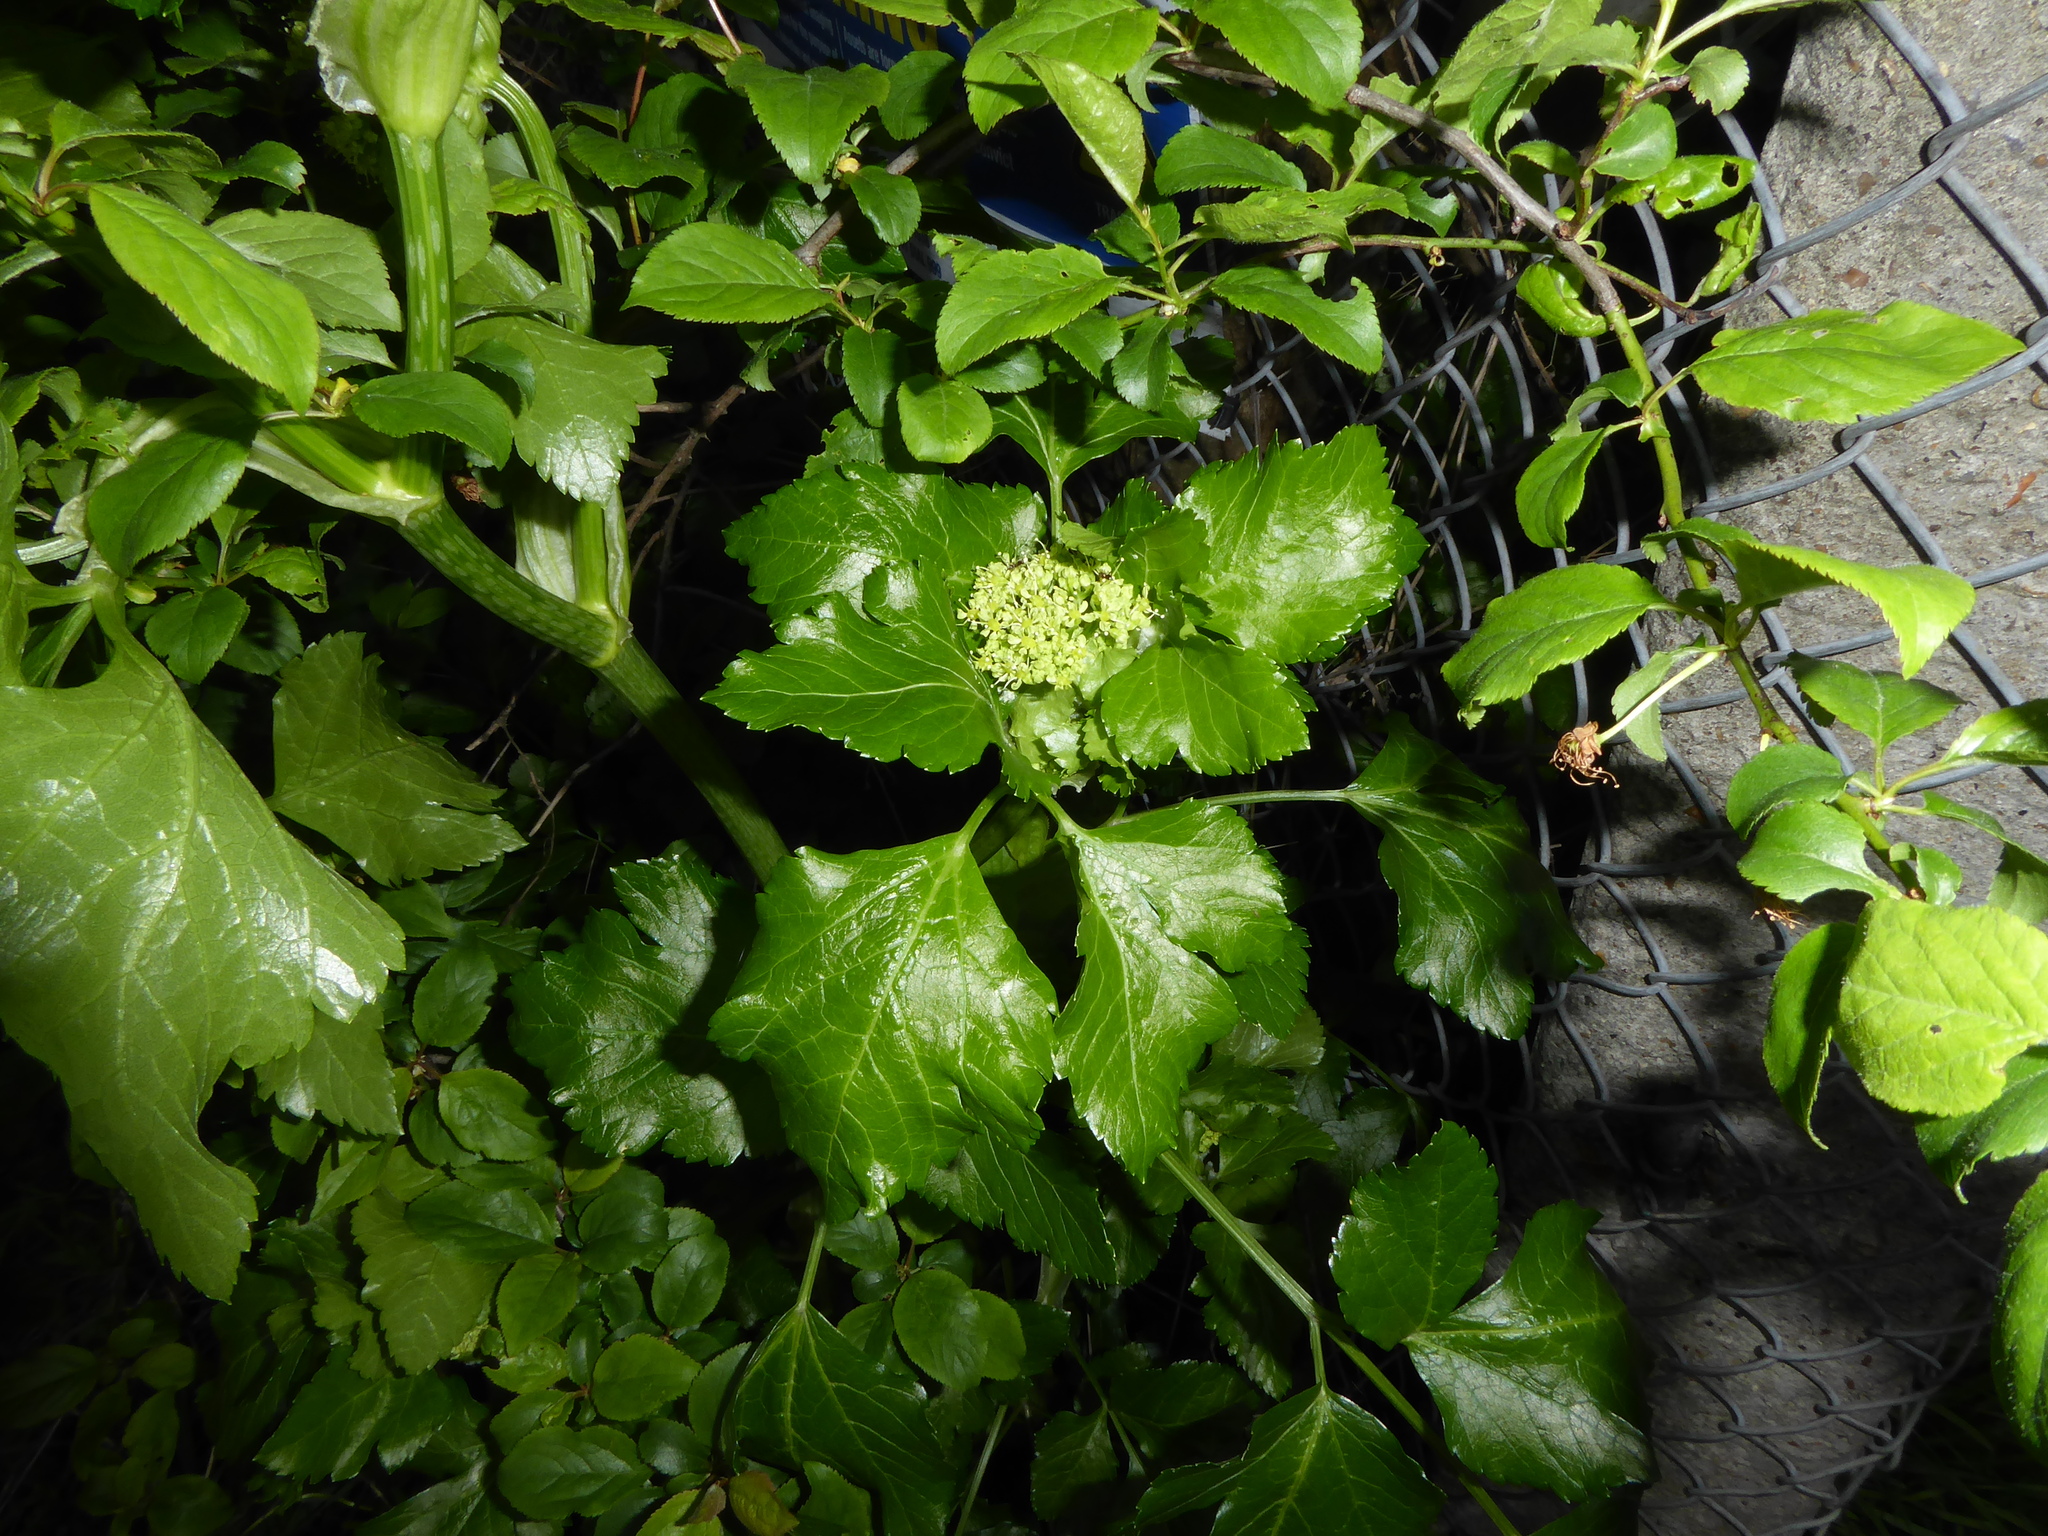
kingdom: Plantae
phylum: Tracheophyta
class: Magnoliopsida
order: Apiales
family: Apiaceae
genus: Smyrnium
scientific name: Smyrnium olusatrum
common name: Alexanders
